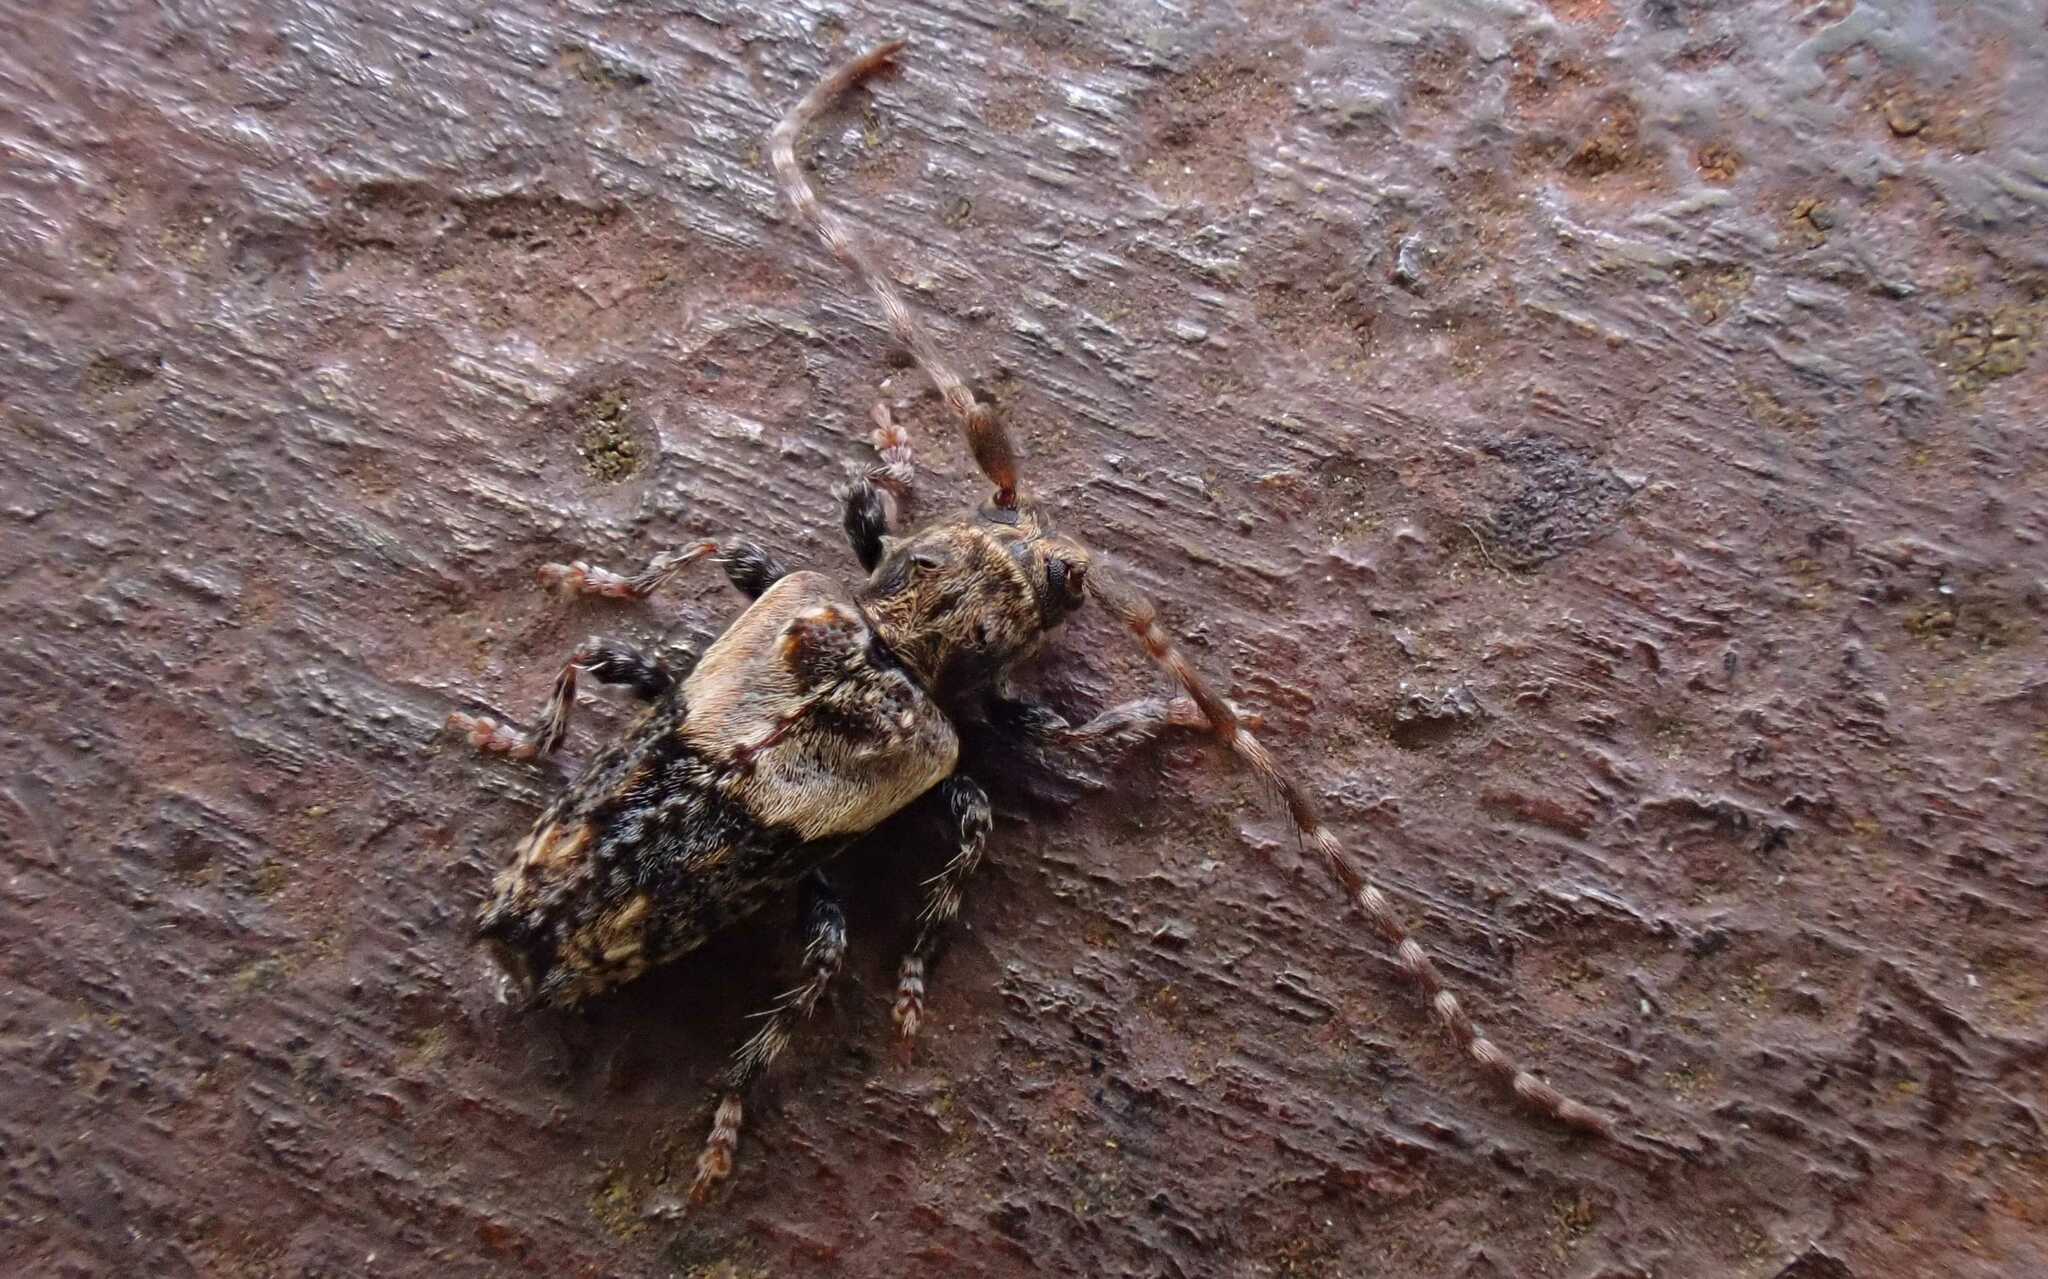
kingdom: Animalia
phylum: Arthropoda
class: Insecta
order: Coleoptera
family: Cerambycidae
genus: Pogonocherus
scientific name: Pogonocherus hispidus
